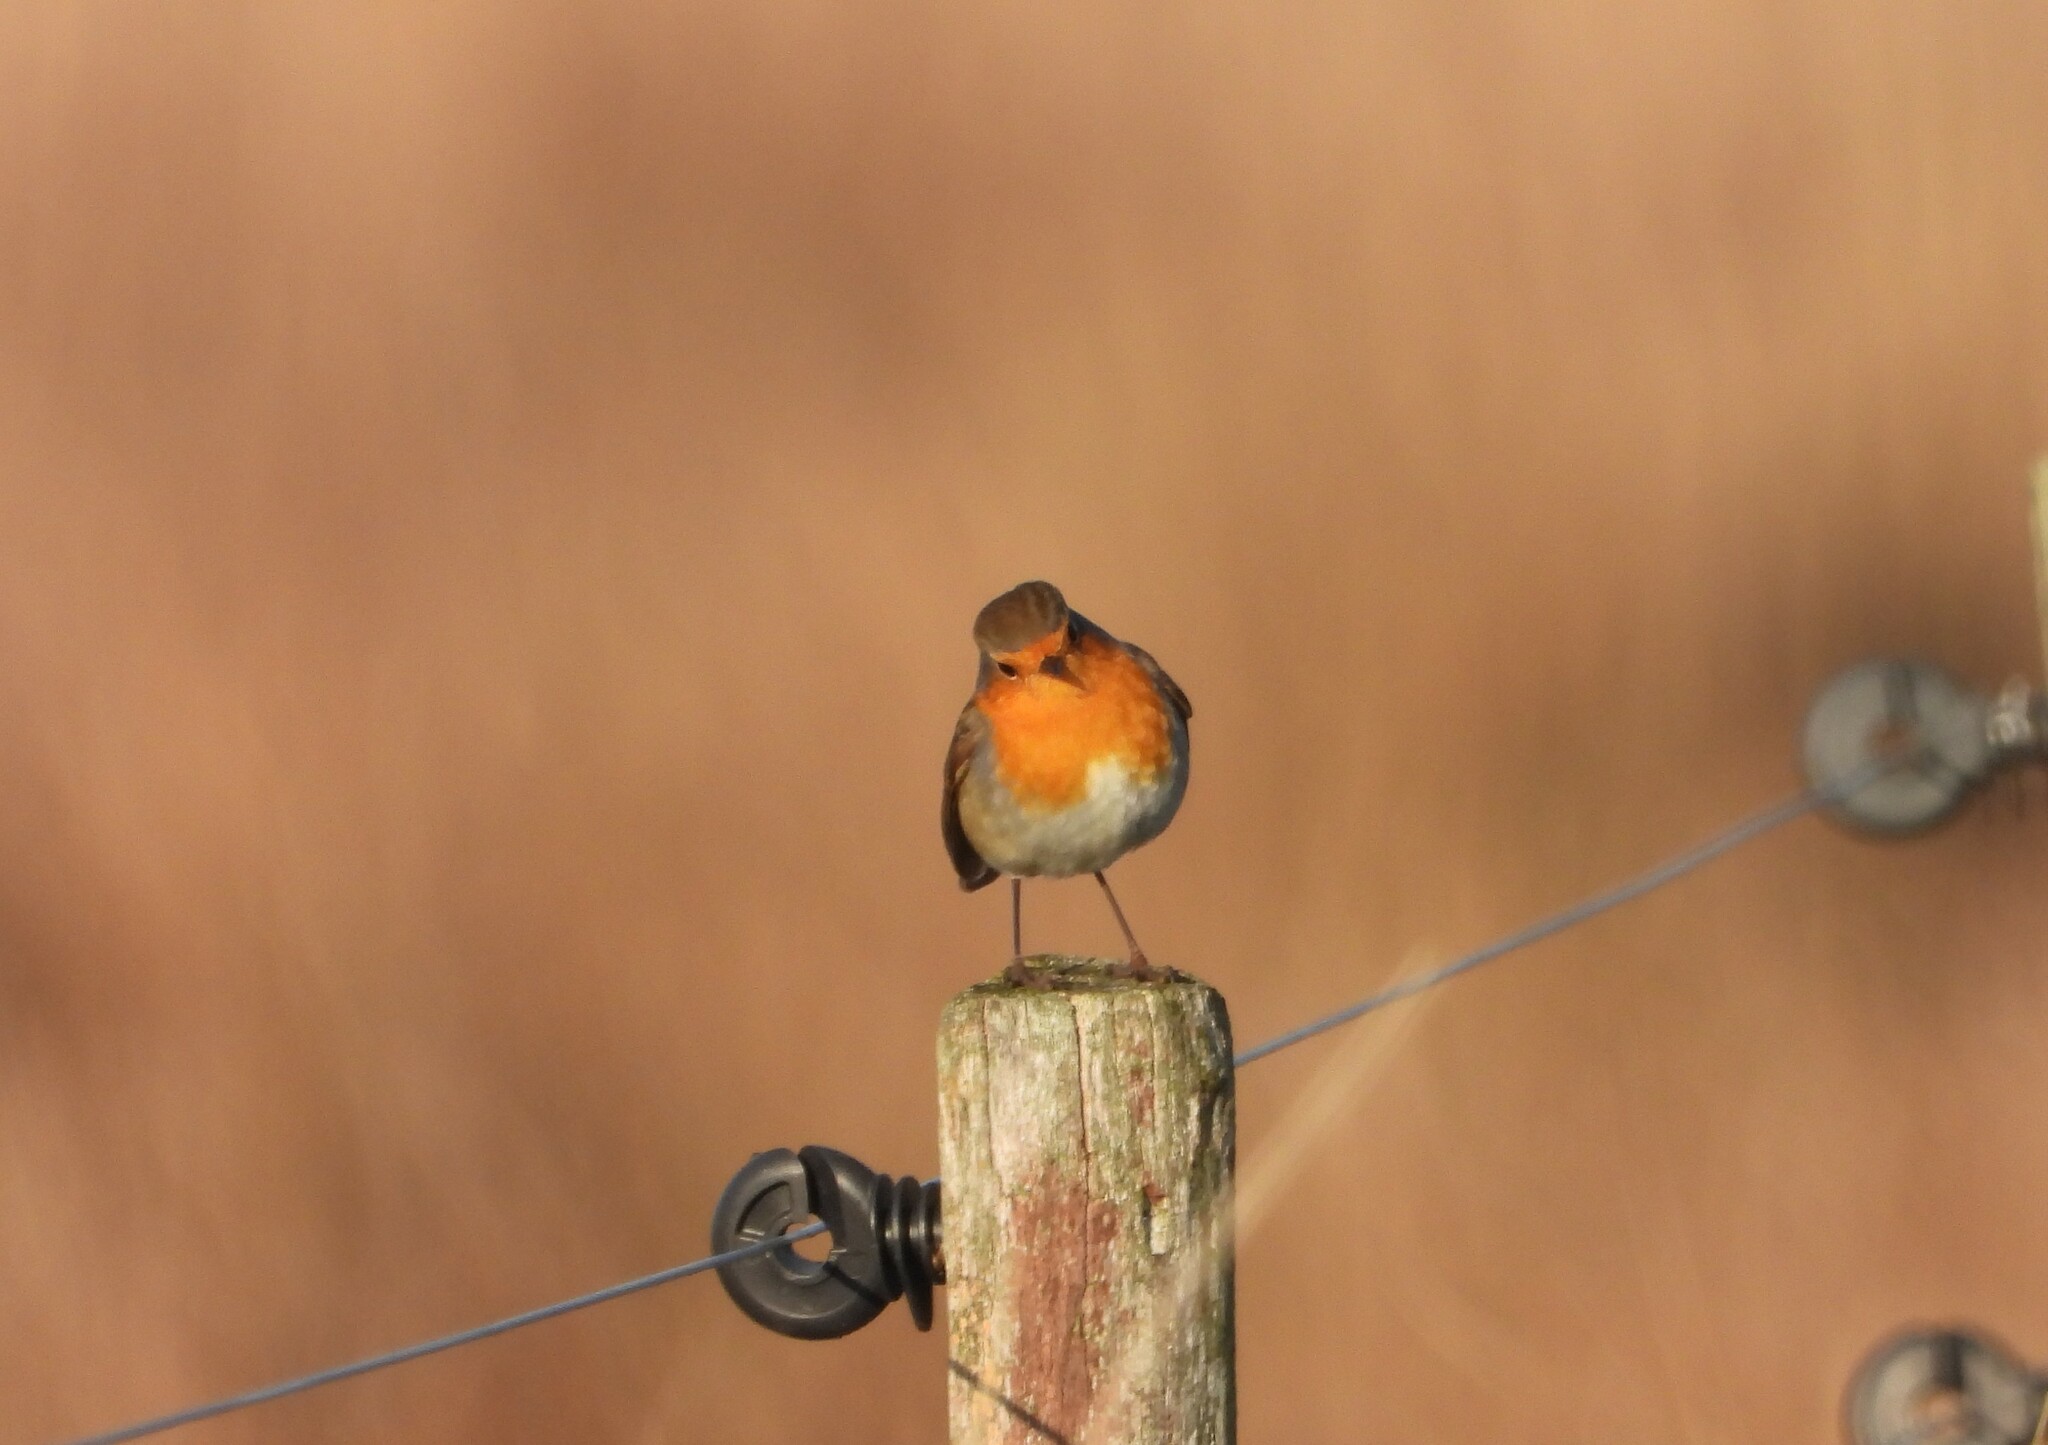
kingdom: Animalia
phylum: Chordata
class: Aves
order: Passeriformes
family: Muscicapidae
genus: Erithacus
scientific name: Erithacus rubecula
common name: European robin
